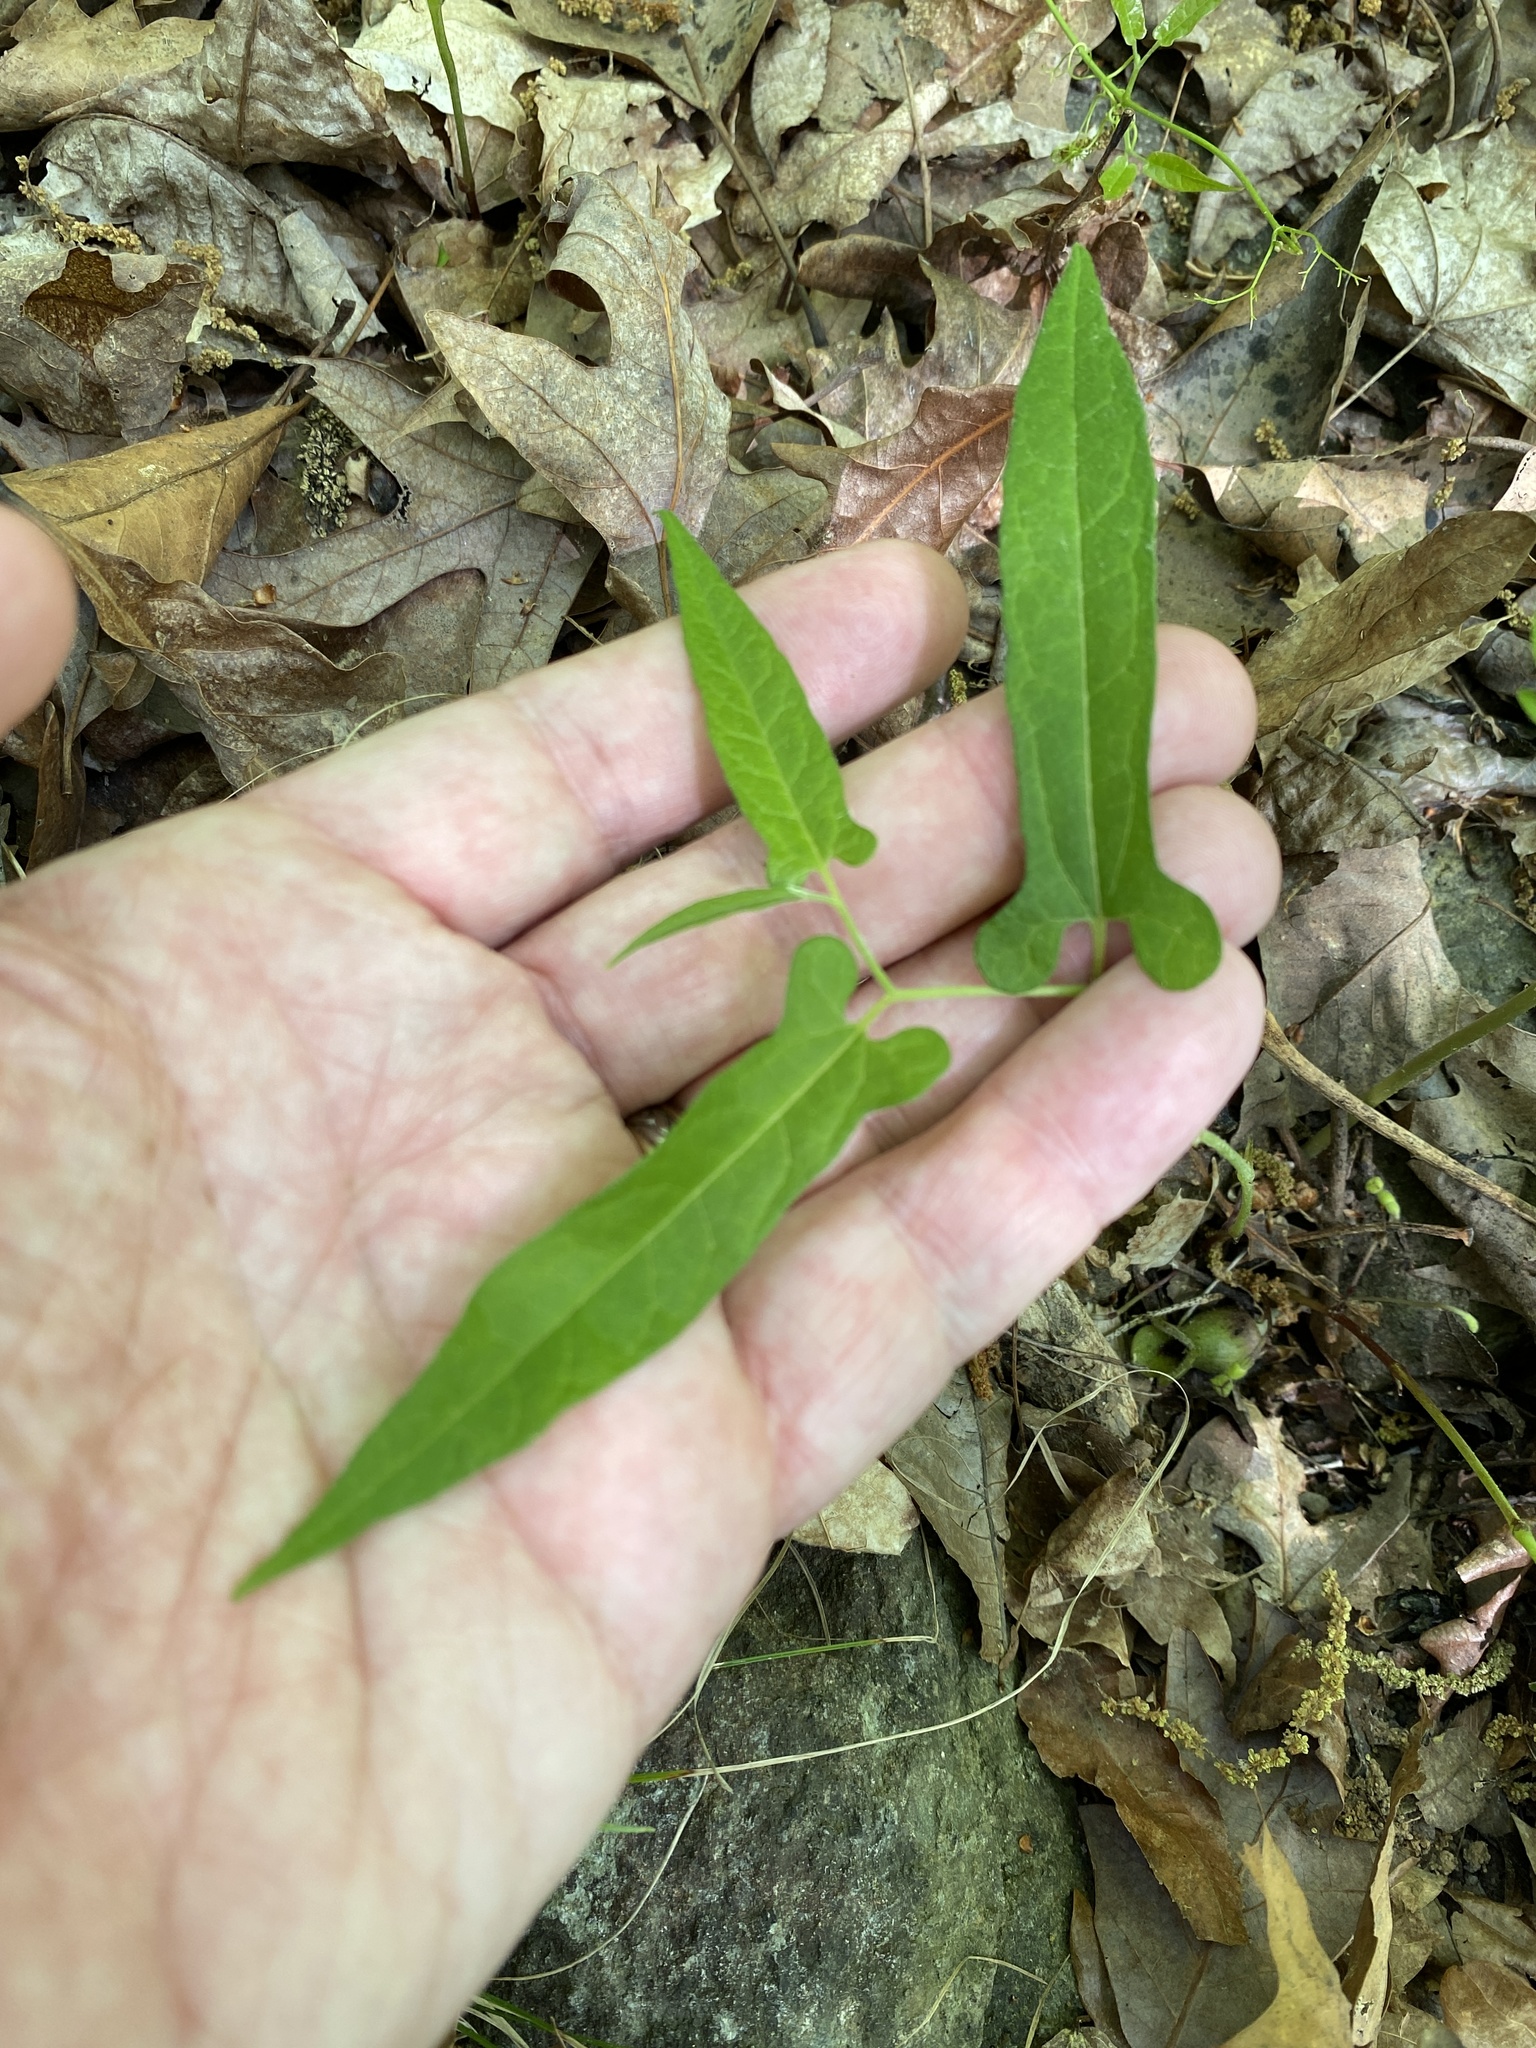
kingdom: Plantae
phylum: Tracheophyta
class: Magnoliopsida
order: Piperales
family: Aristolochiaceae
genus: Endodeca
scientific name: Endodeca serpentaria
